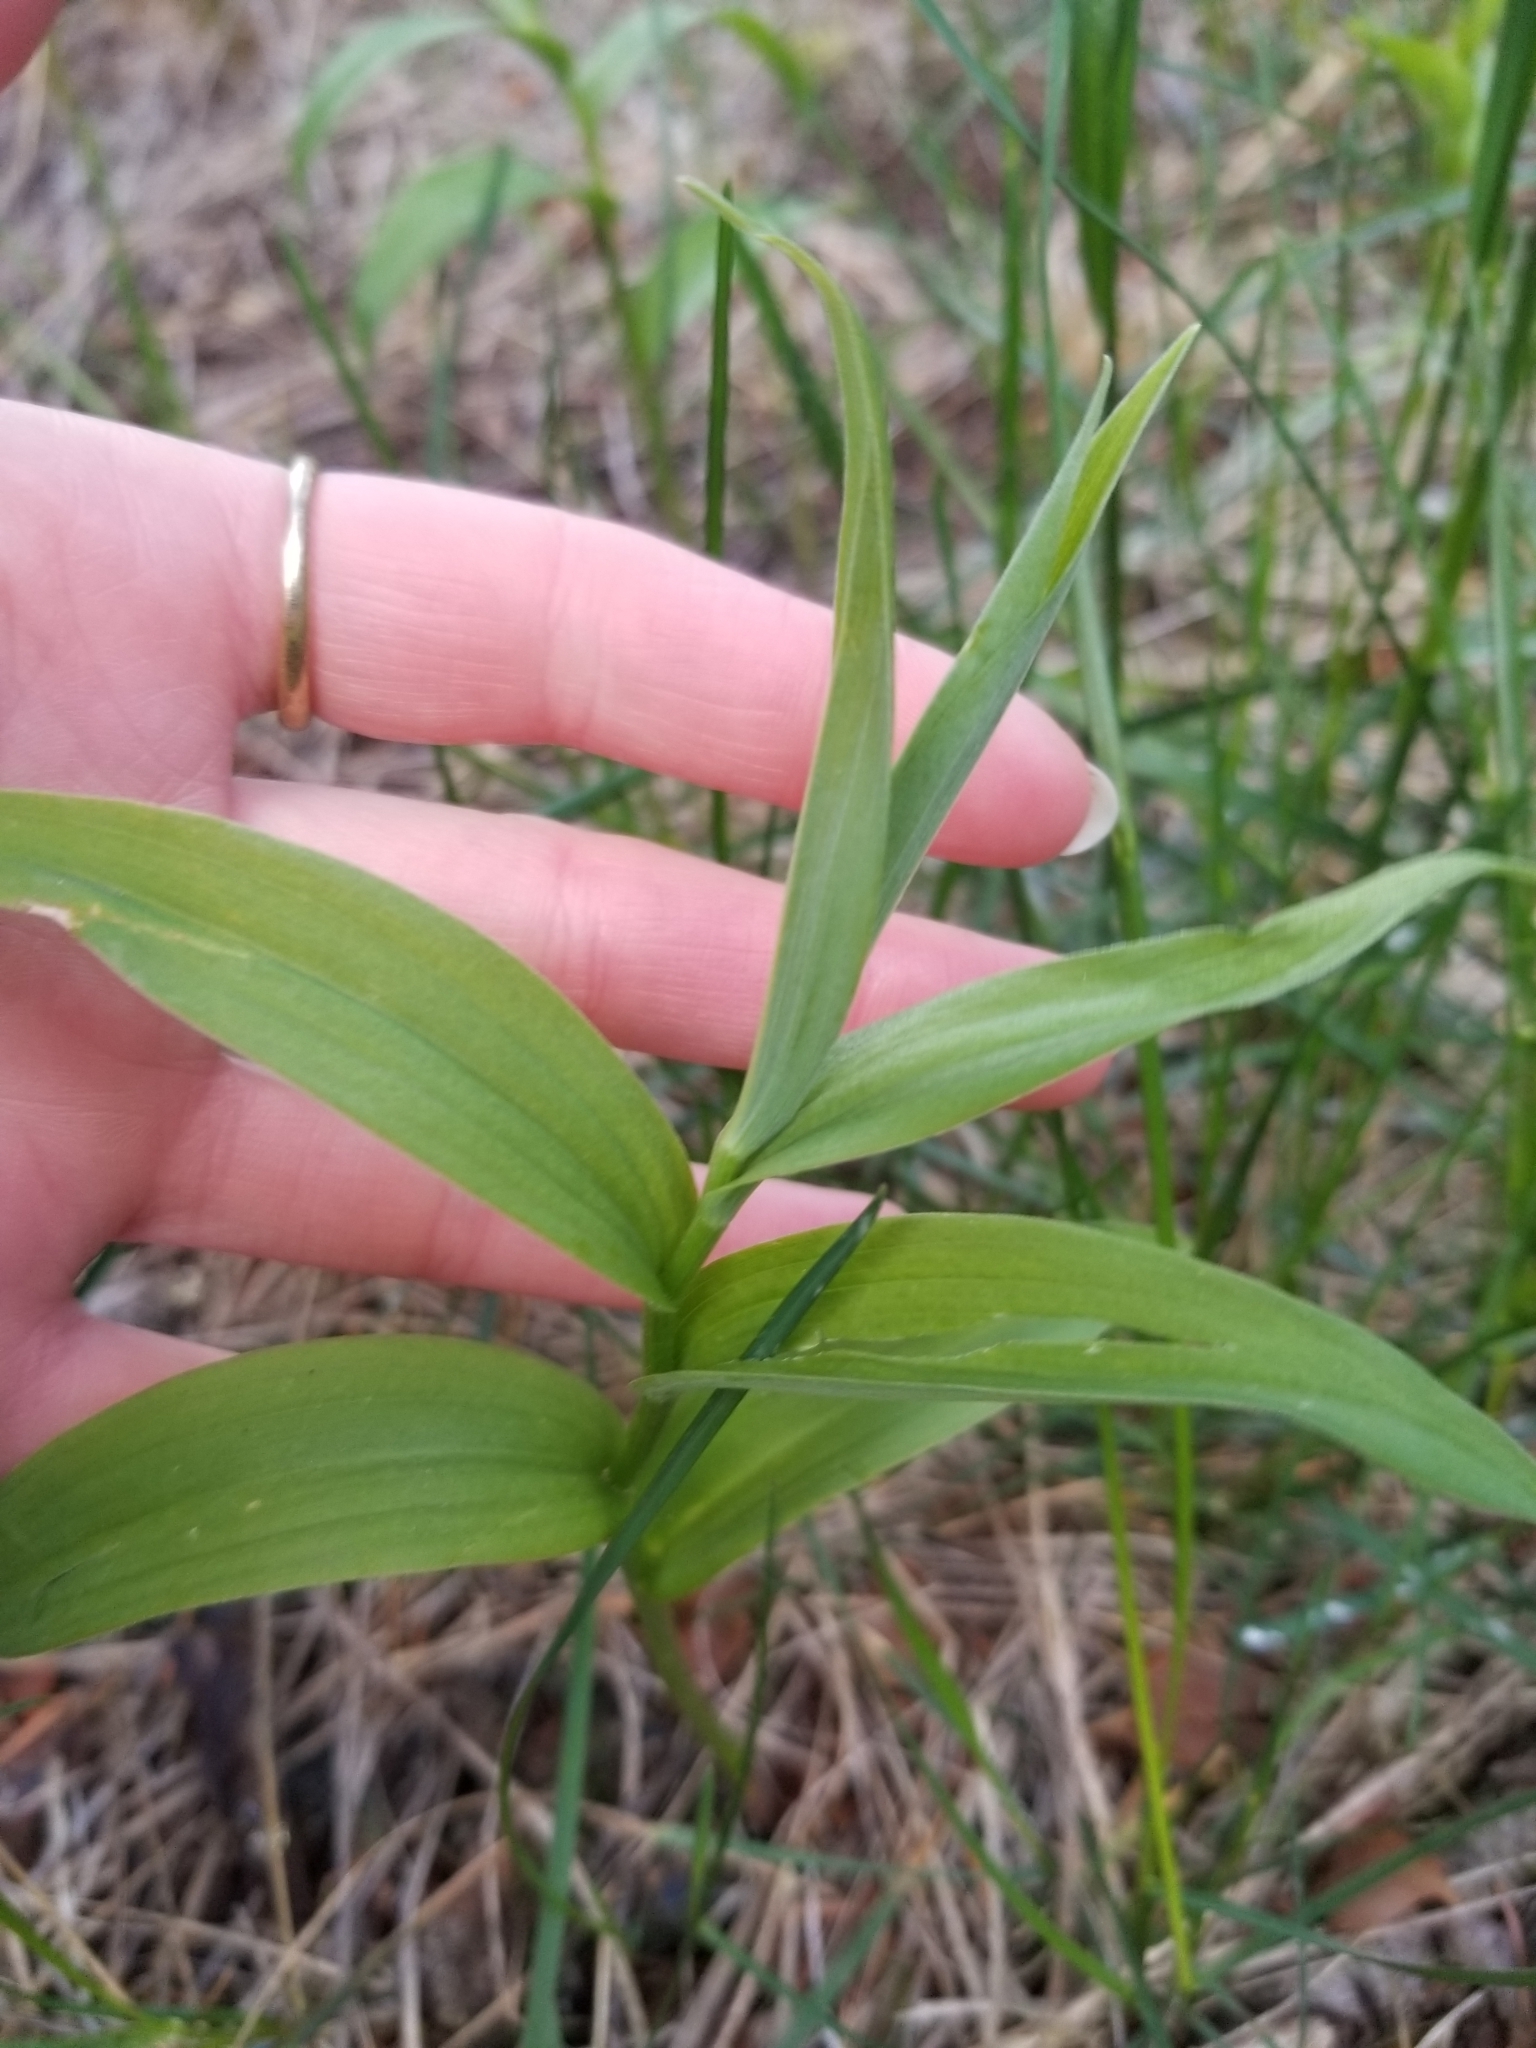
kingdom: Plantae
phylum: Tracheophyta
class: Liliopsida
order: Asparagales
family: Asparagaceae
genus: Maianthemum
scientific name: Maianthemum stellatum
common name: Little false solomon's seal
